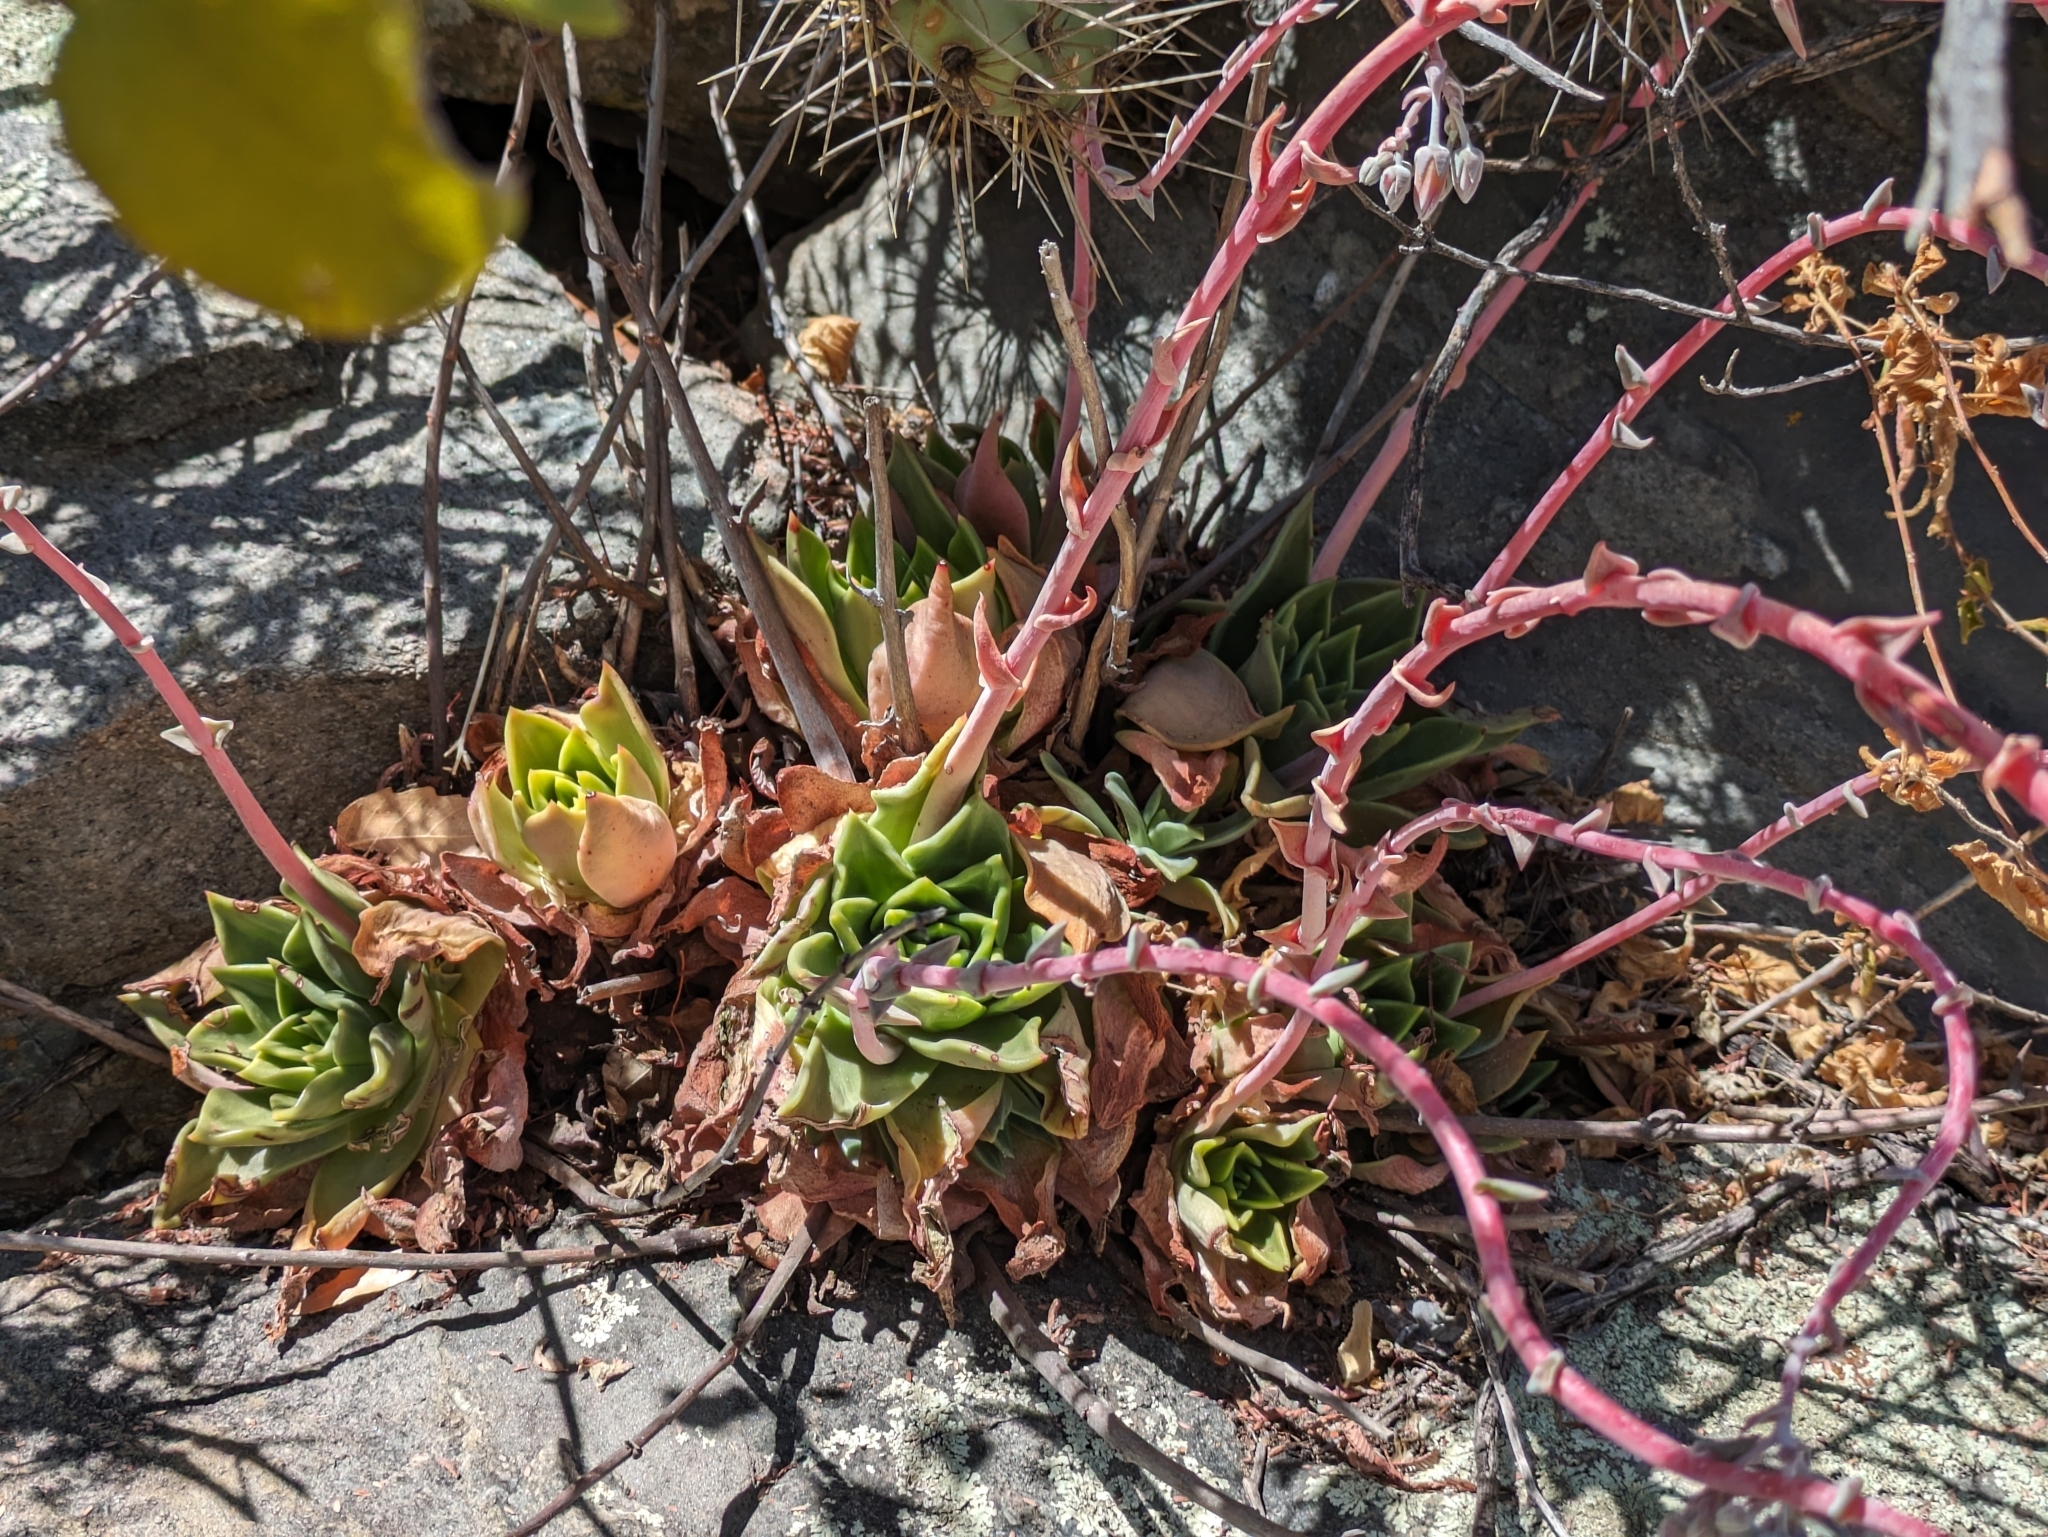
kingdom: Plantae
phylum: Tracheophyta
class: Magnoliopsida
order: Saxifragales
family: Crassulaceae
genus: Dudleya
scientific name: Dudleya rigida
